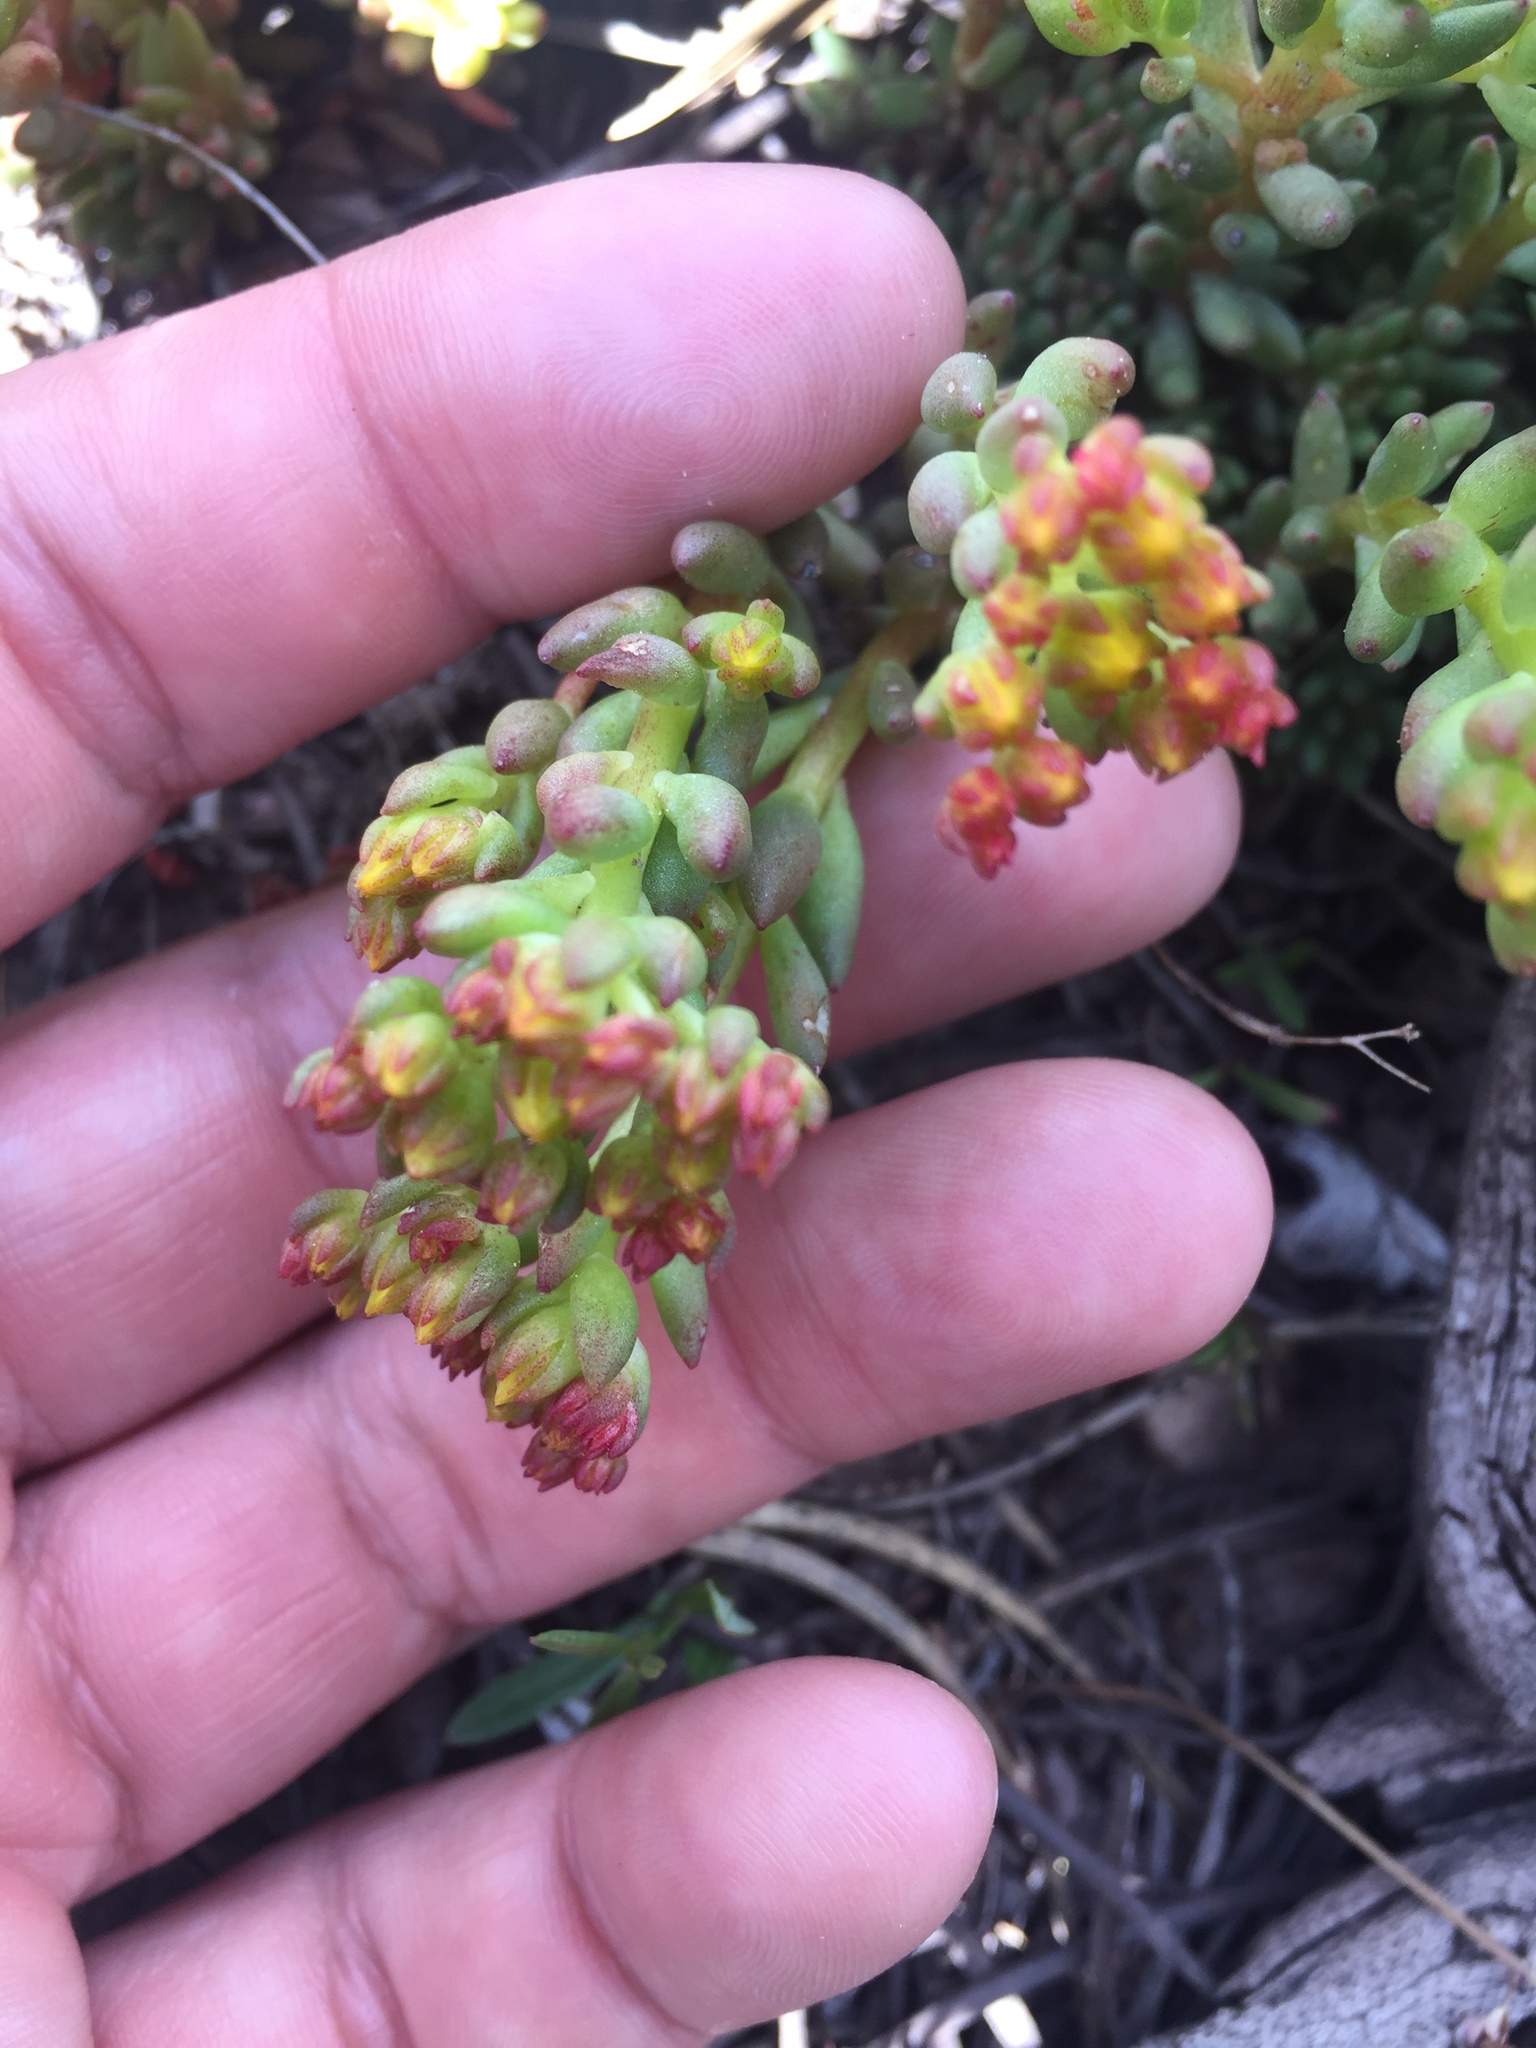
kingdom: Plantae
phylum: Tracheophyta
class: Magnoliopsida
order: Saxifragales
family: Crassulaceae
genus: Sedum
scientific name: Sedum lanceolatum
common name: Common stonecrop
